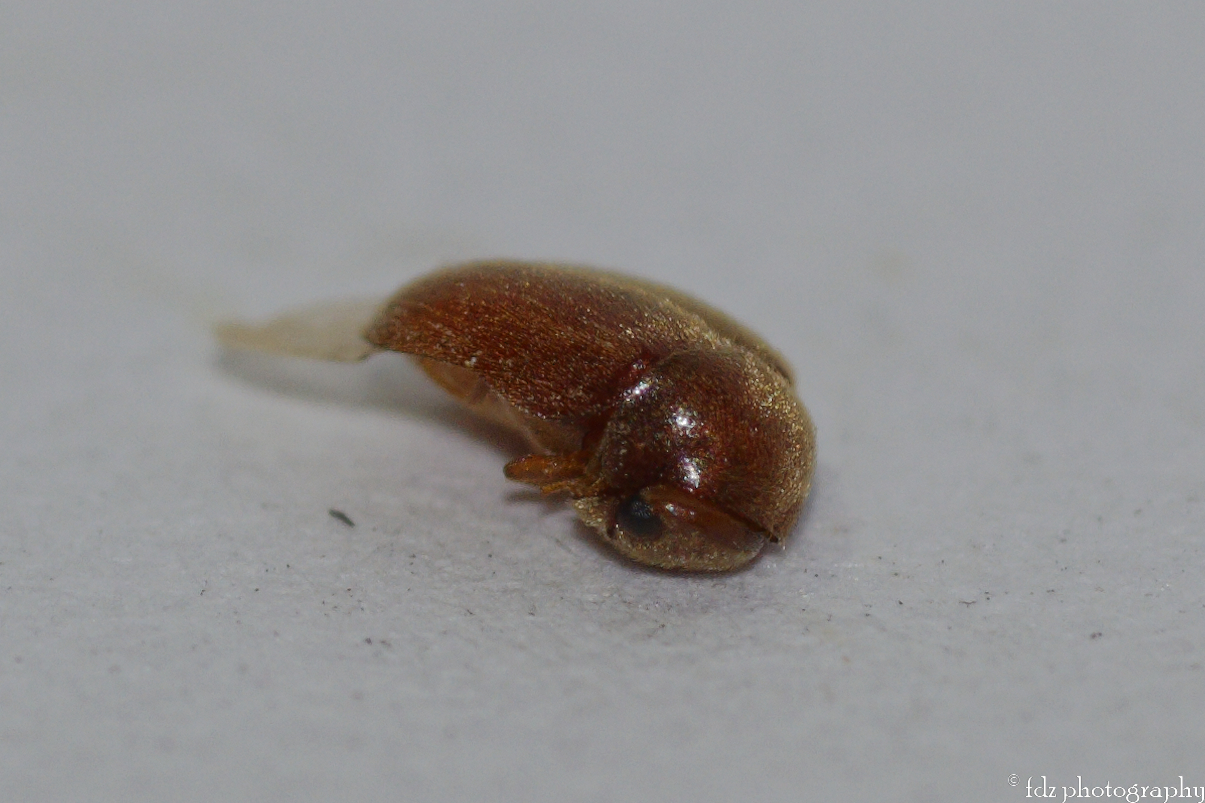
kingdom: Animalia
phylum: Arthropoda
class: Insecta
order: Coleoptera
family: Anobiidae
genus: Lasioderma
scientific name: Lasioderma serricorne
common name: Cigarette beetle
